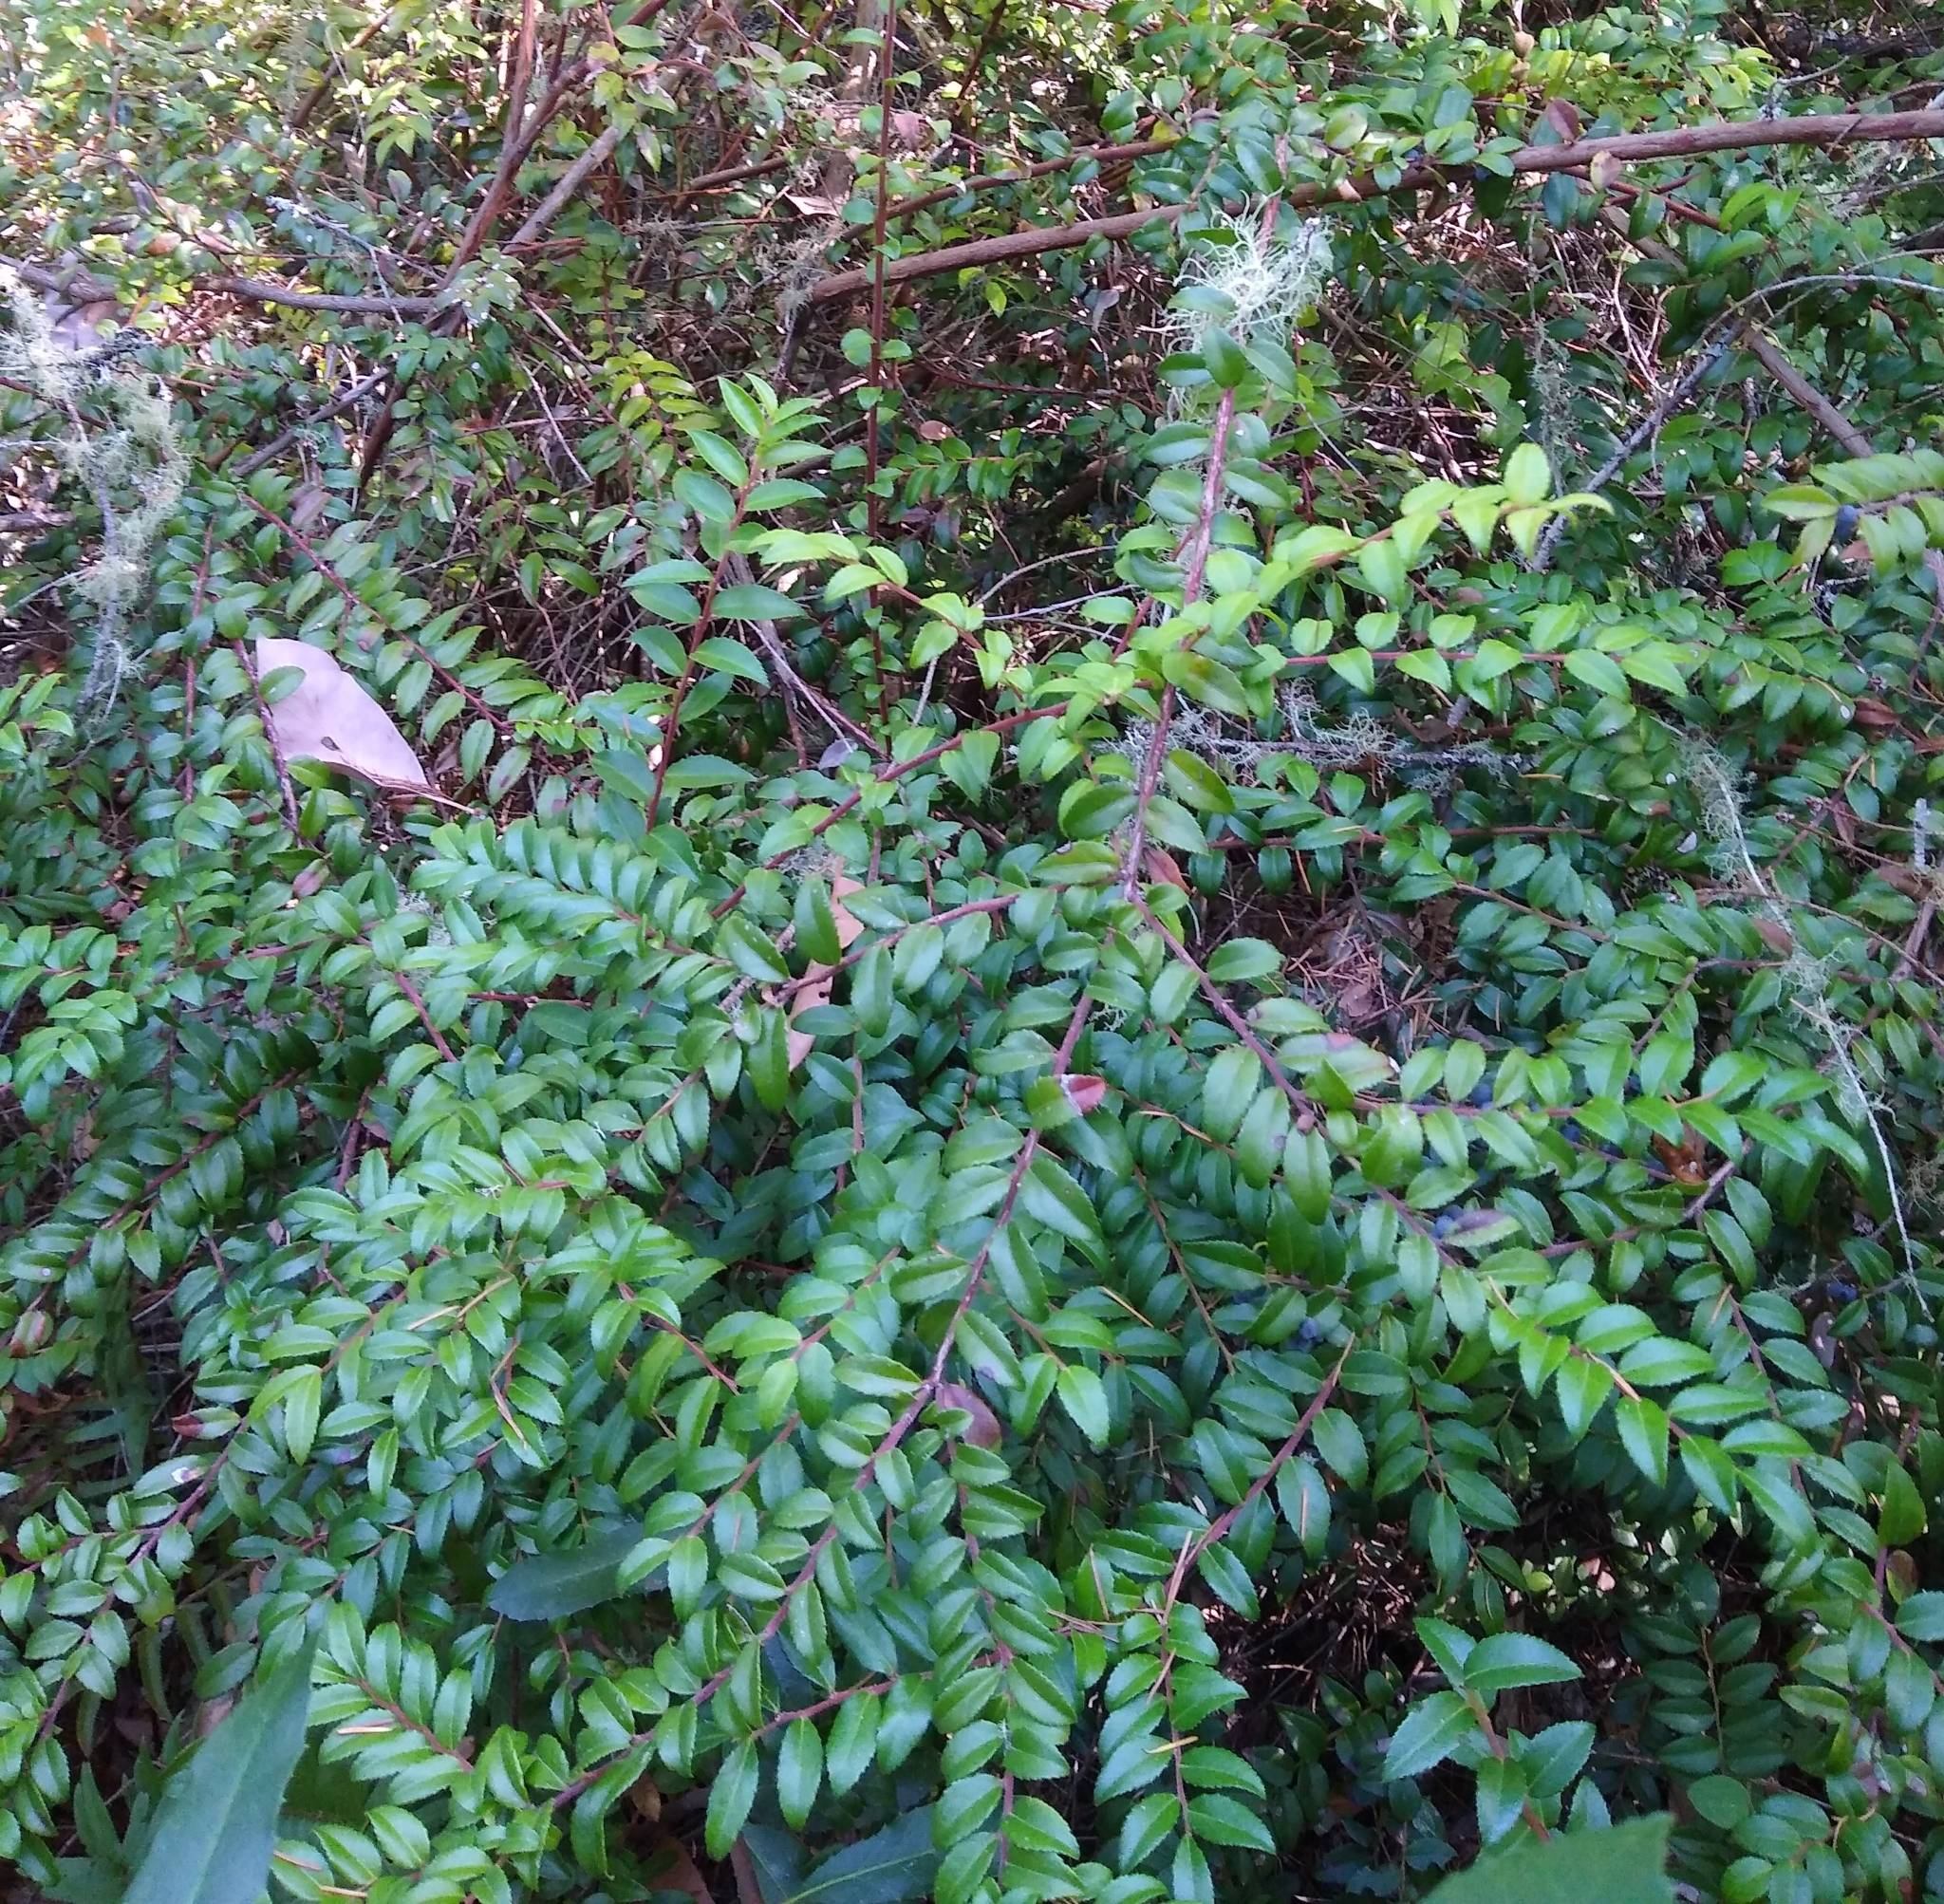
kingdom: Plantae
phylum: Tracheophyta
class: Magnoliopsida
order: Ericales
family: Ericaceae
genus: Vaccinium
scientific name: Vaccinium ovatum
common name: California-huckleberry
